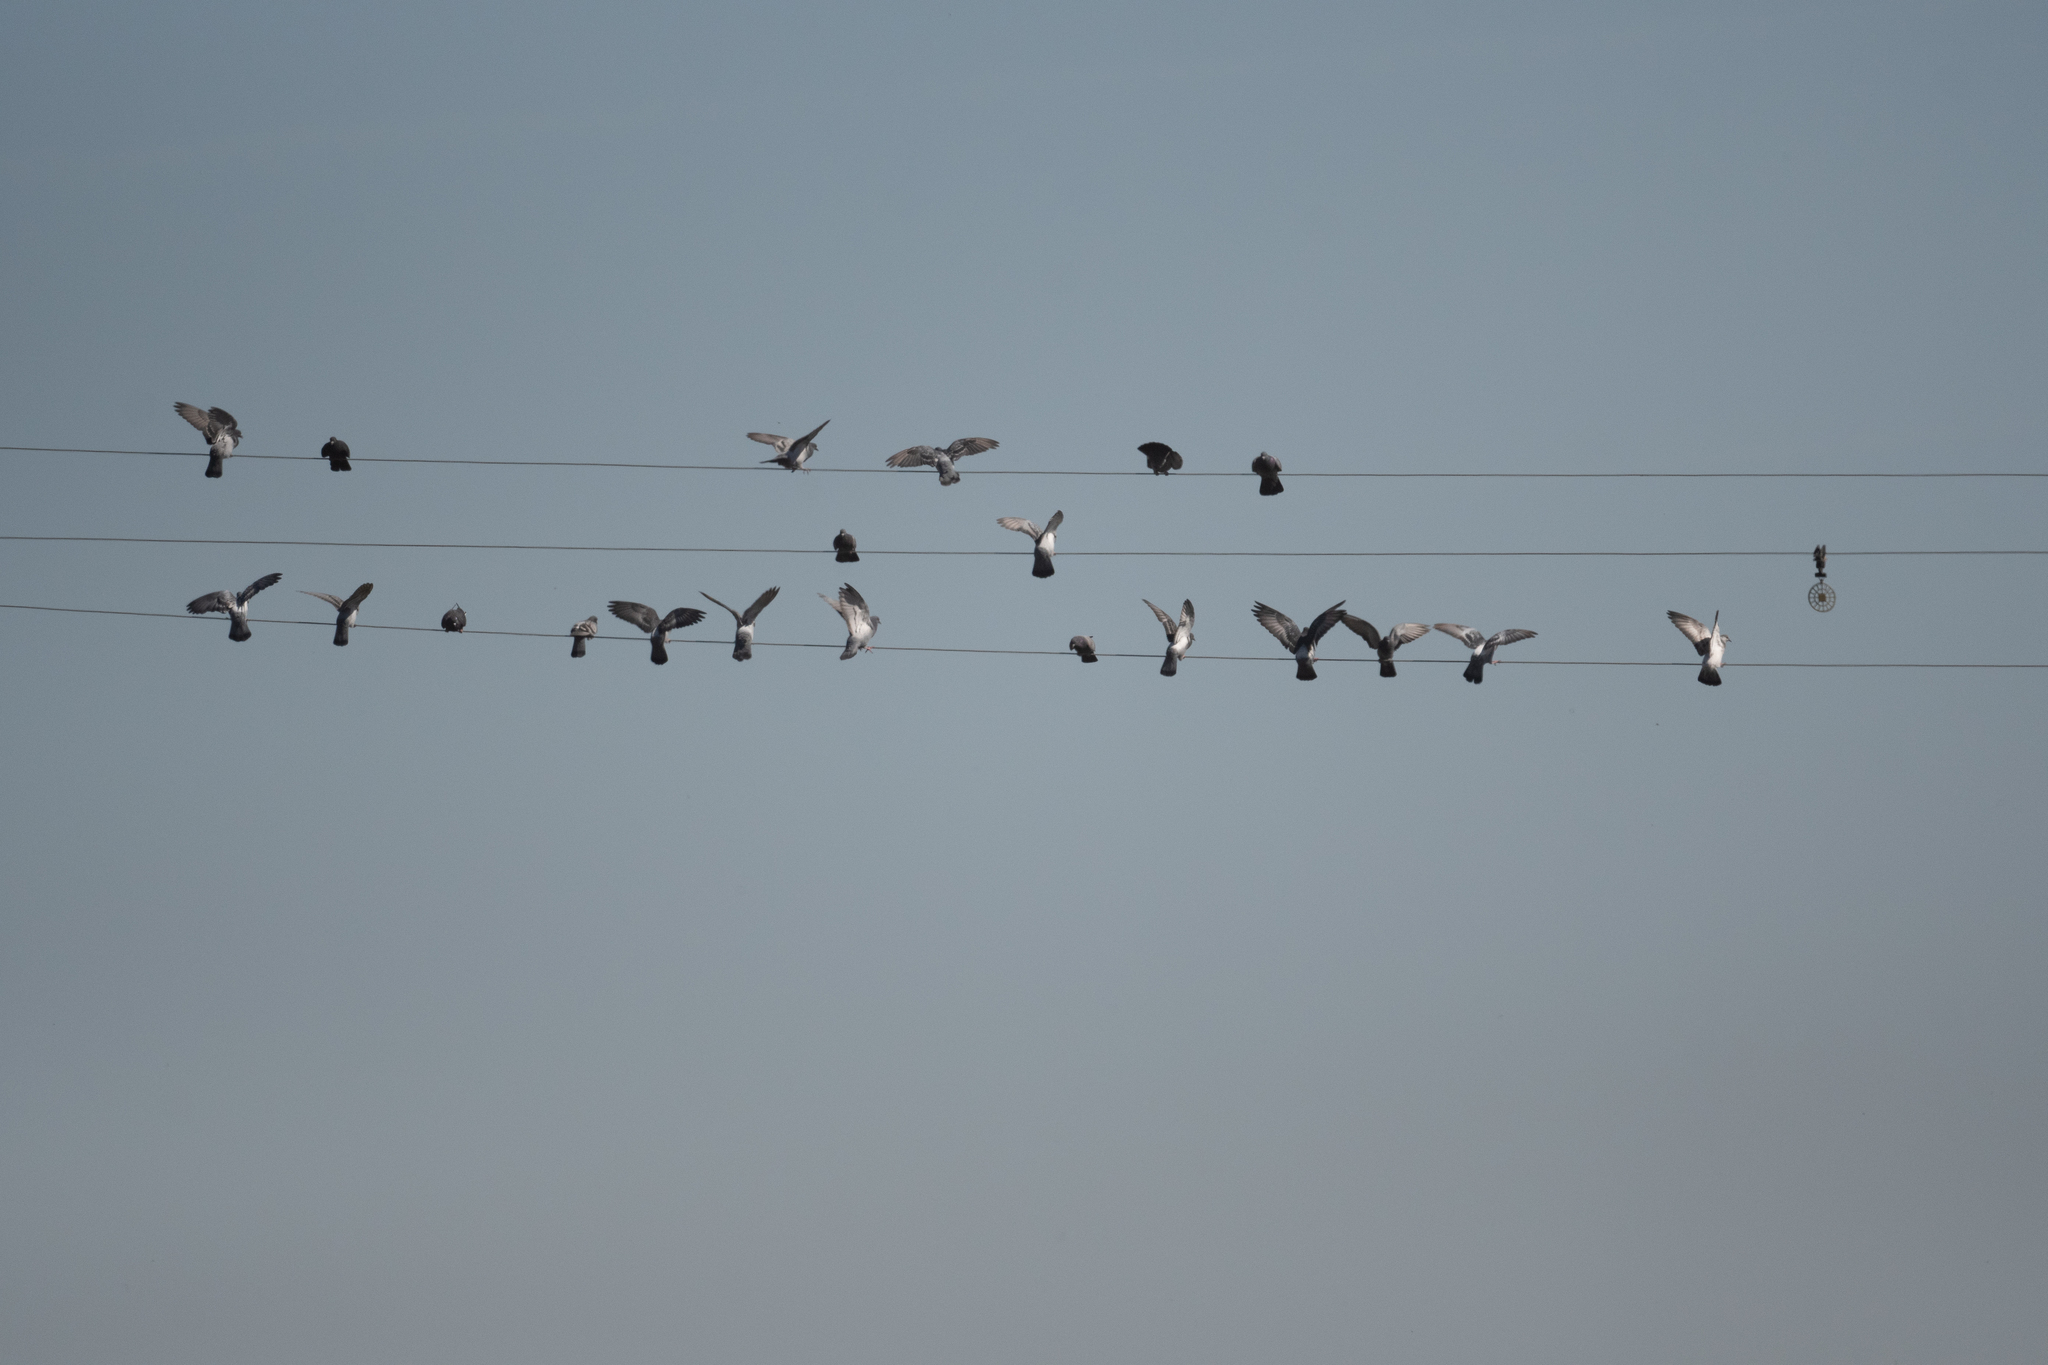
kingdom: Animalia
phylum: Chordata
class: Aves
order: Columbiformes
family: Columbidae
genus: Columba
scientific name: Columba livia
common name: Rock pigeon
